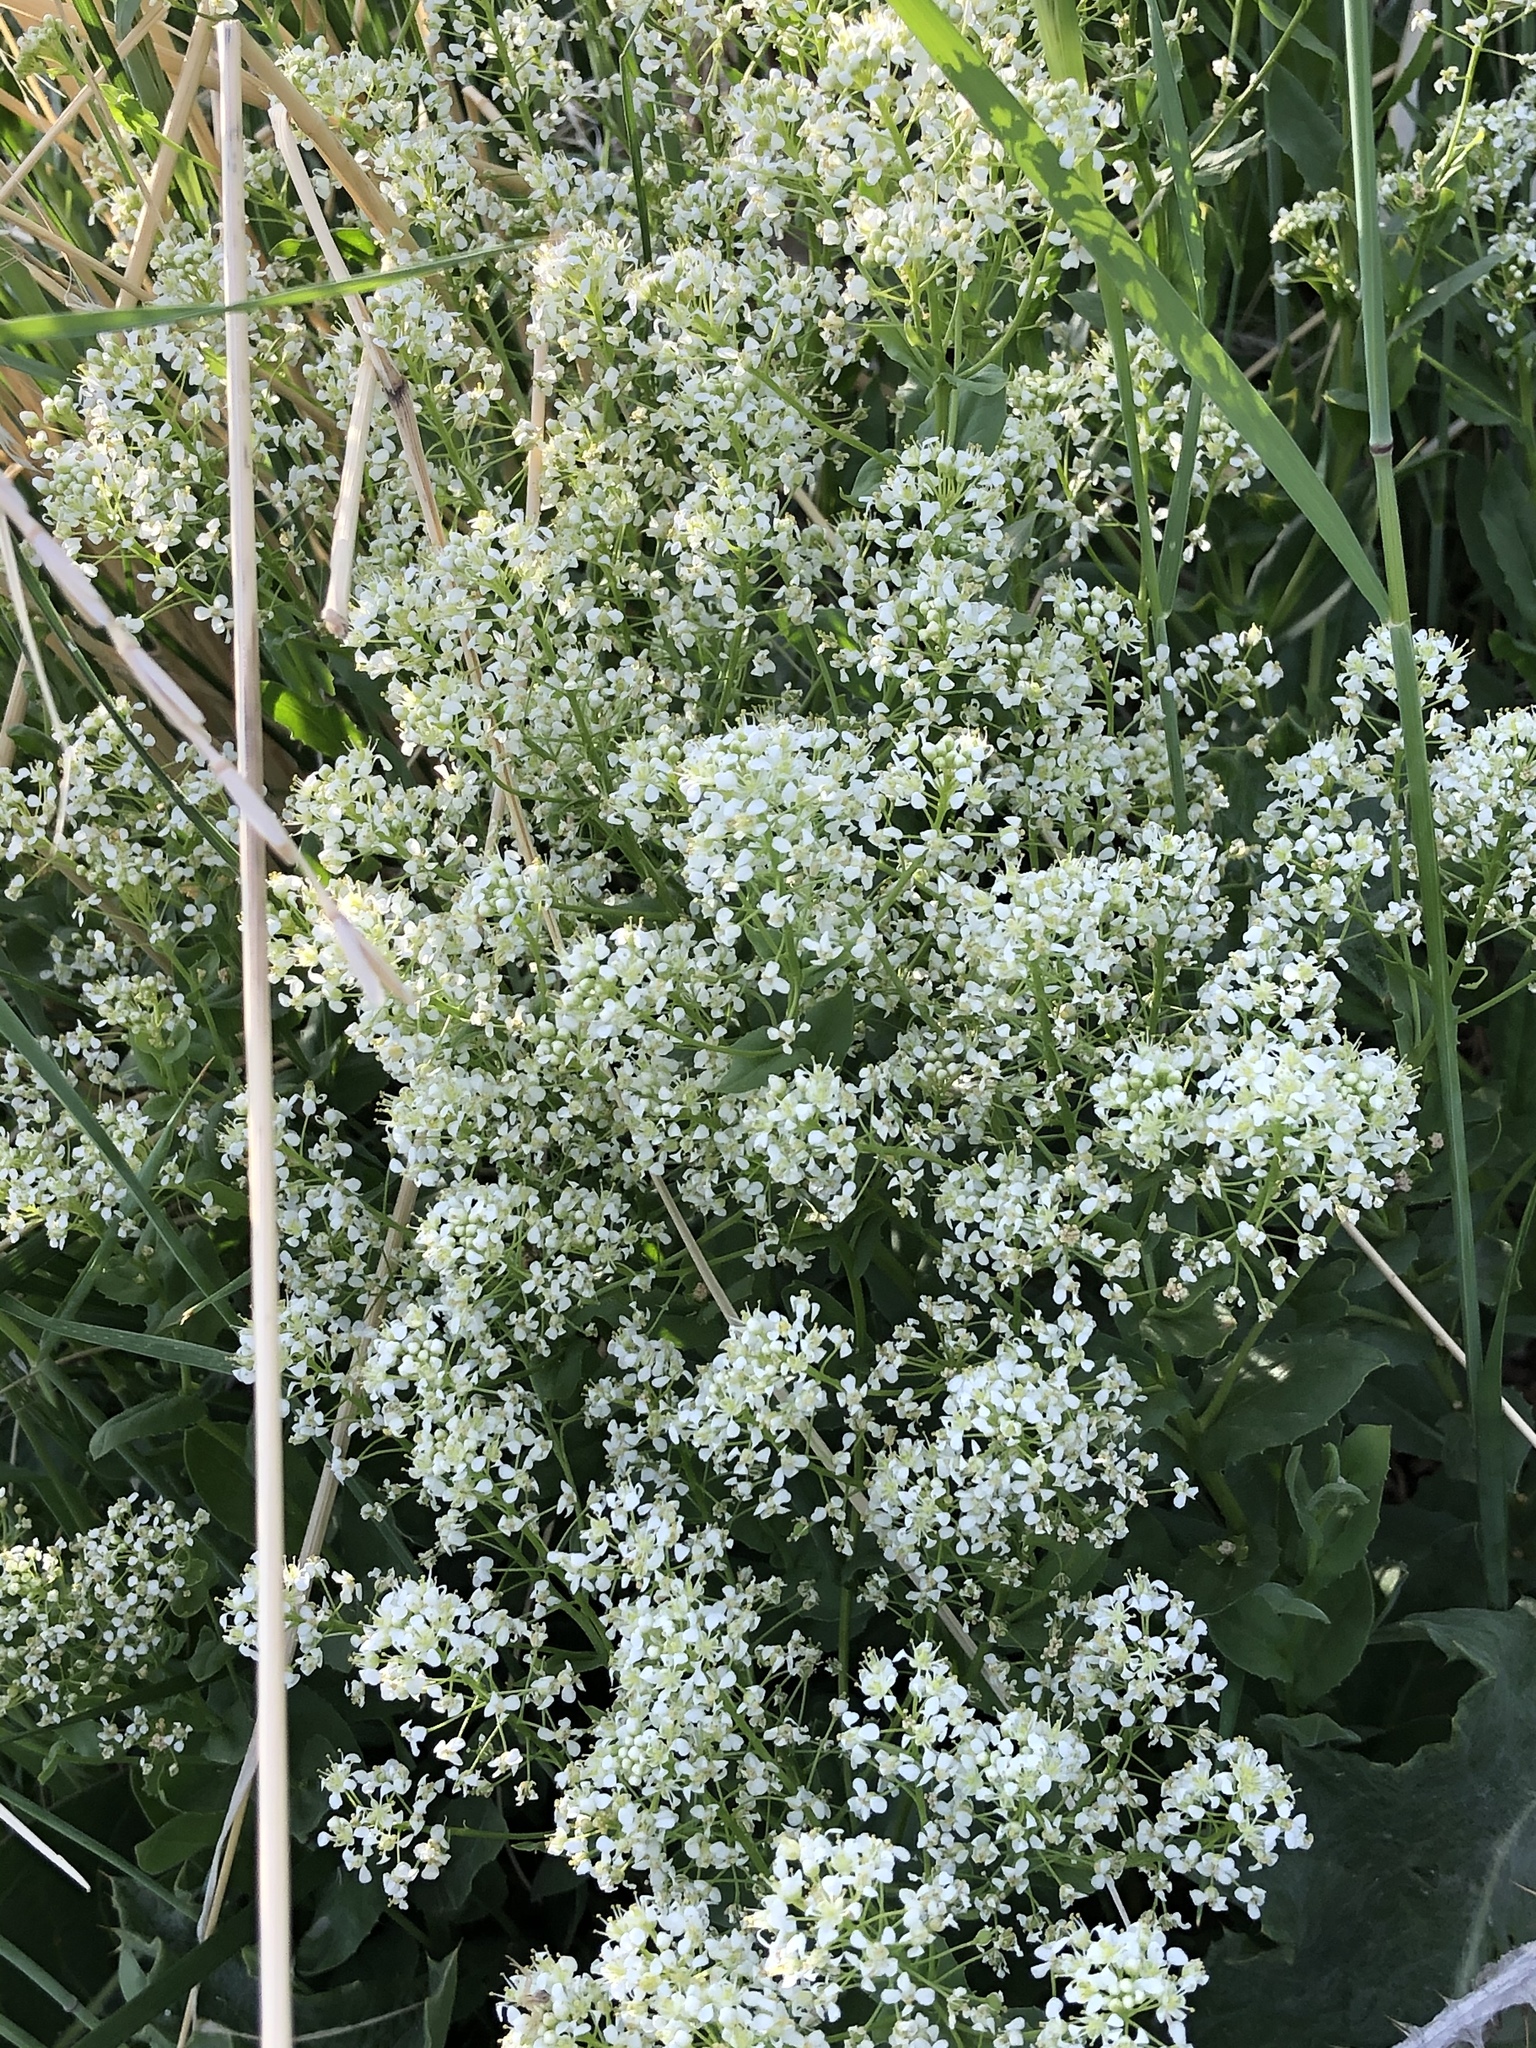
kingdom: Plantae
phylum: Tracheophyta
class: Magnoliopsida
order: Brassicales
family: Brassicaceae
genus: Lepidium
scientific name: Lepidium latifolium
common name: Dittander
